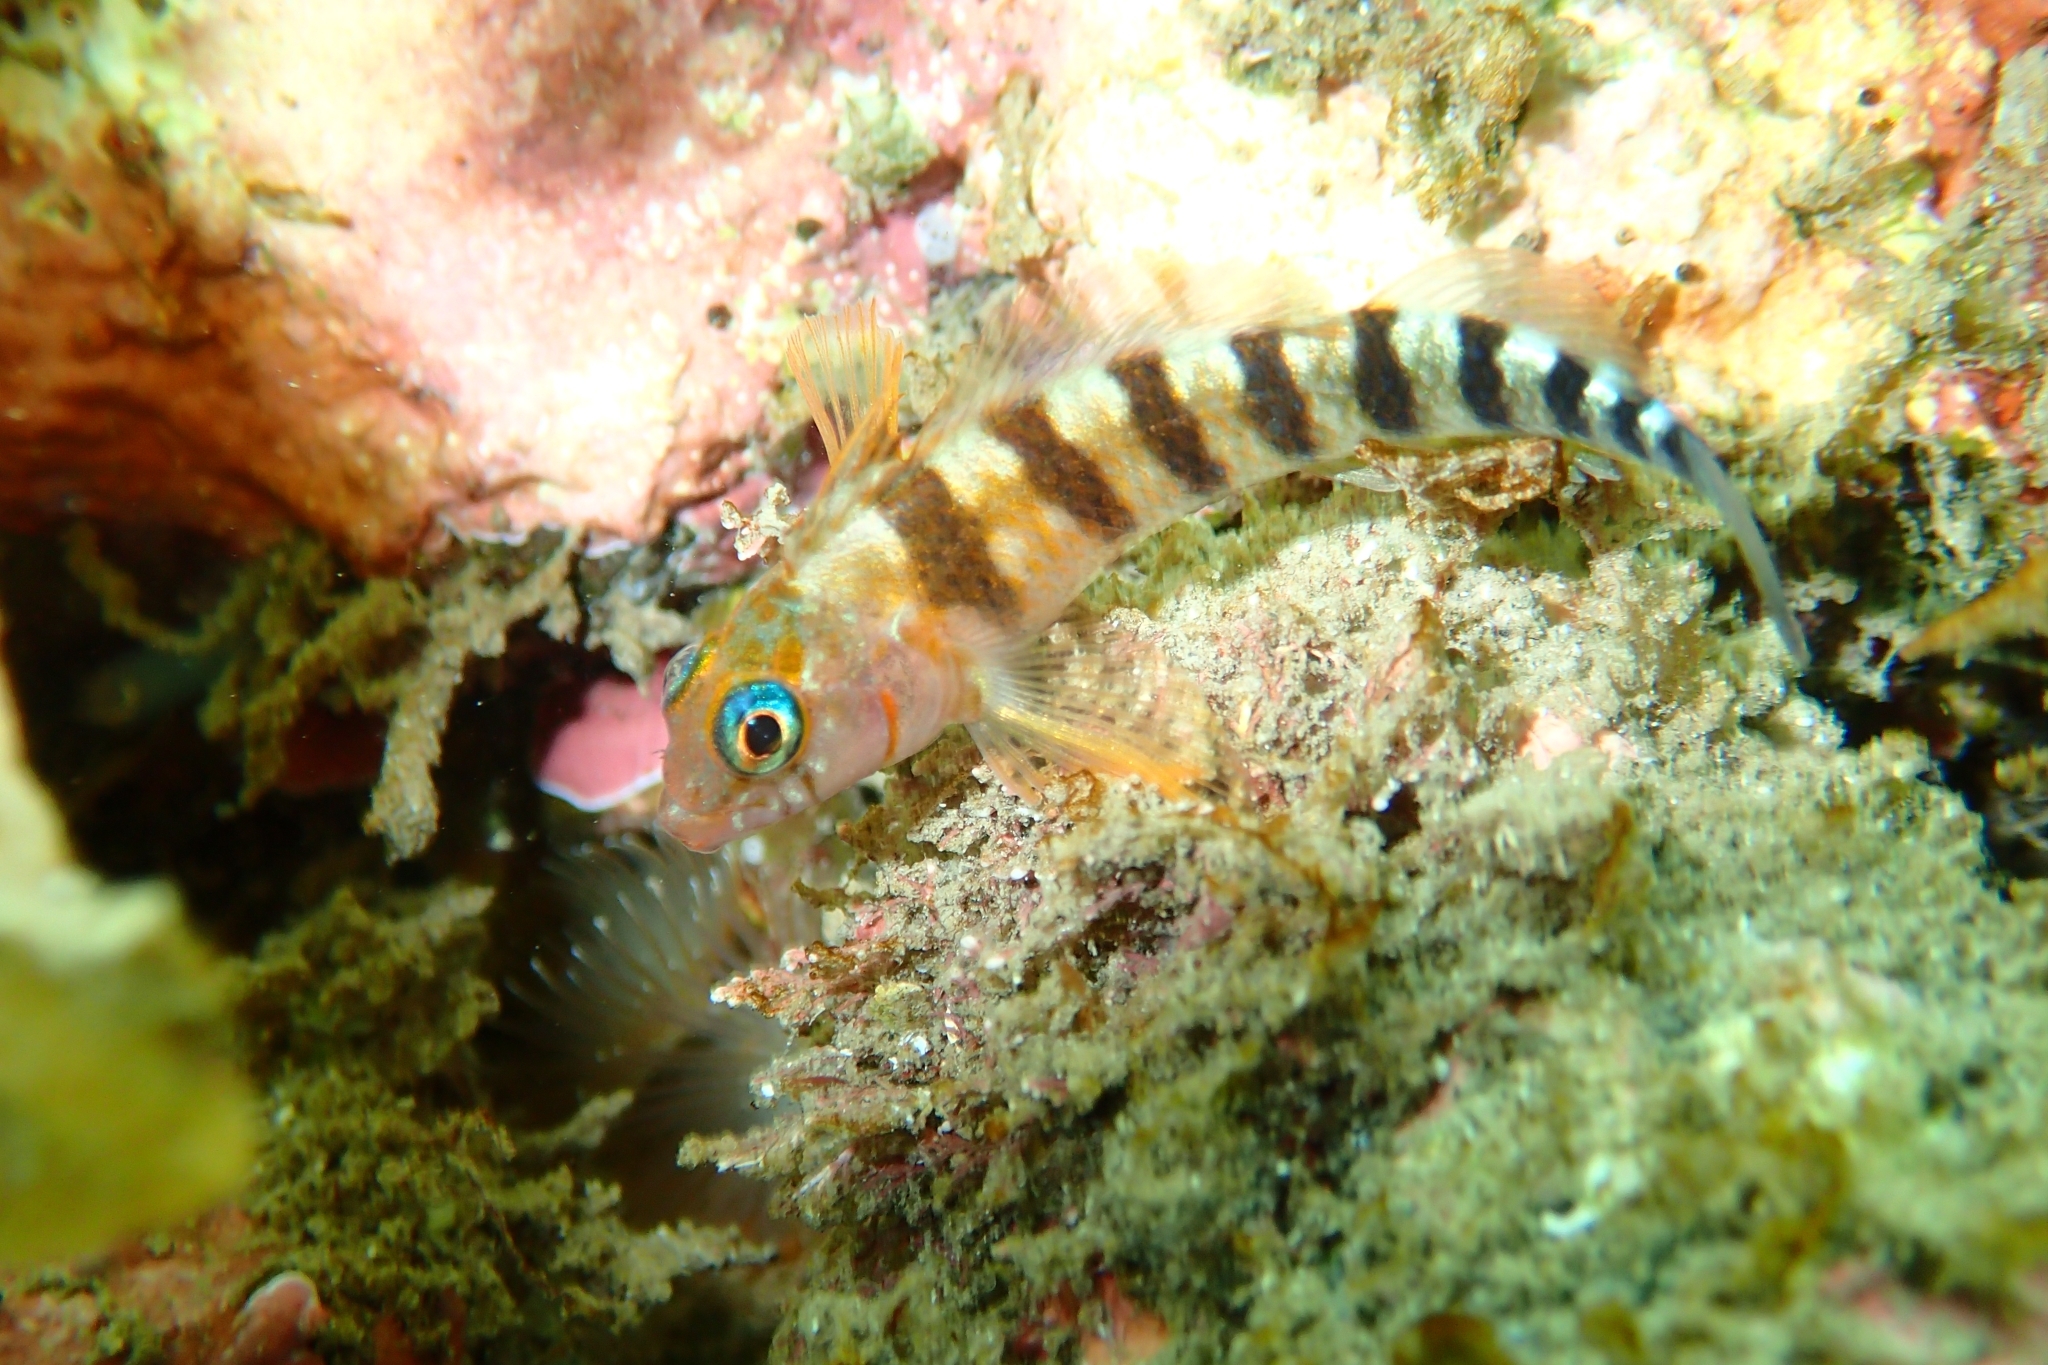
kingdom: Animalia
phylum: Chordata
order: Perciformes
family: Tripterygiidae
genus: Notoclinops
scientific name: Notoclinops segmentatus
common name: Blue-eyed triplefin
